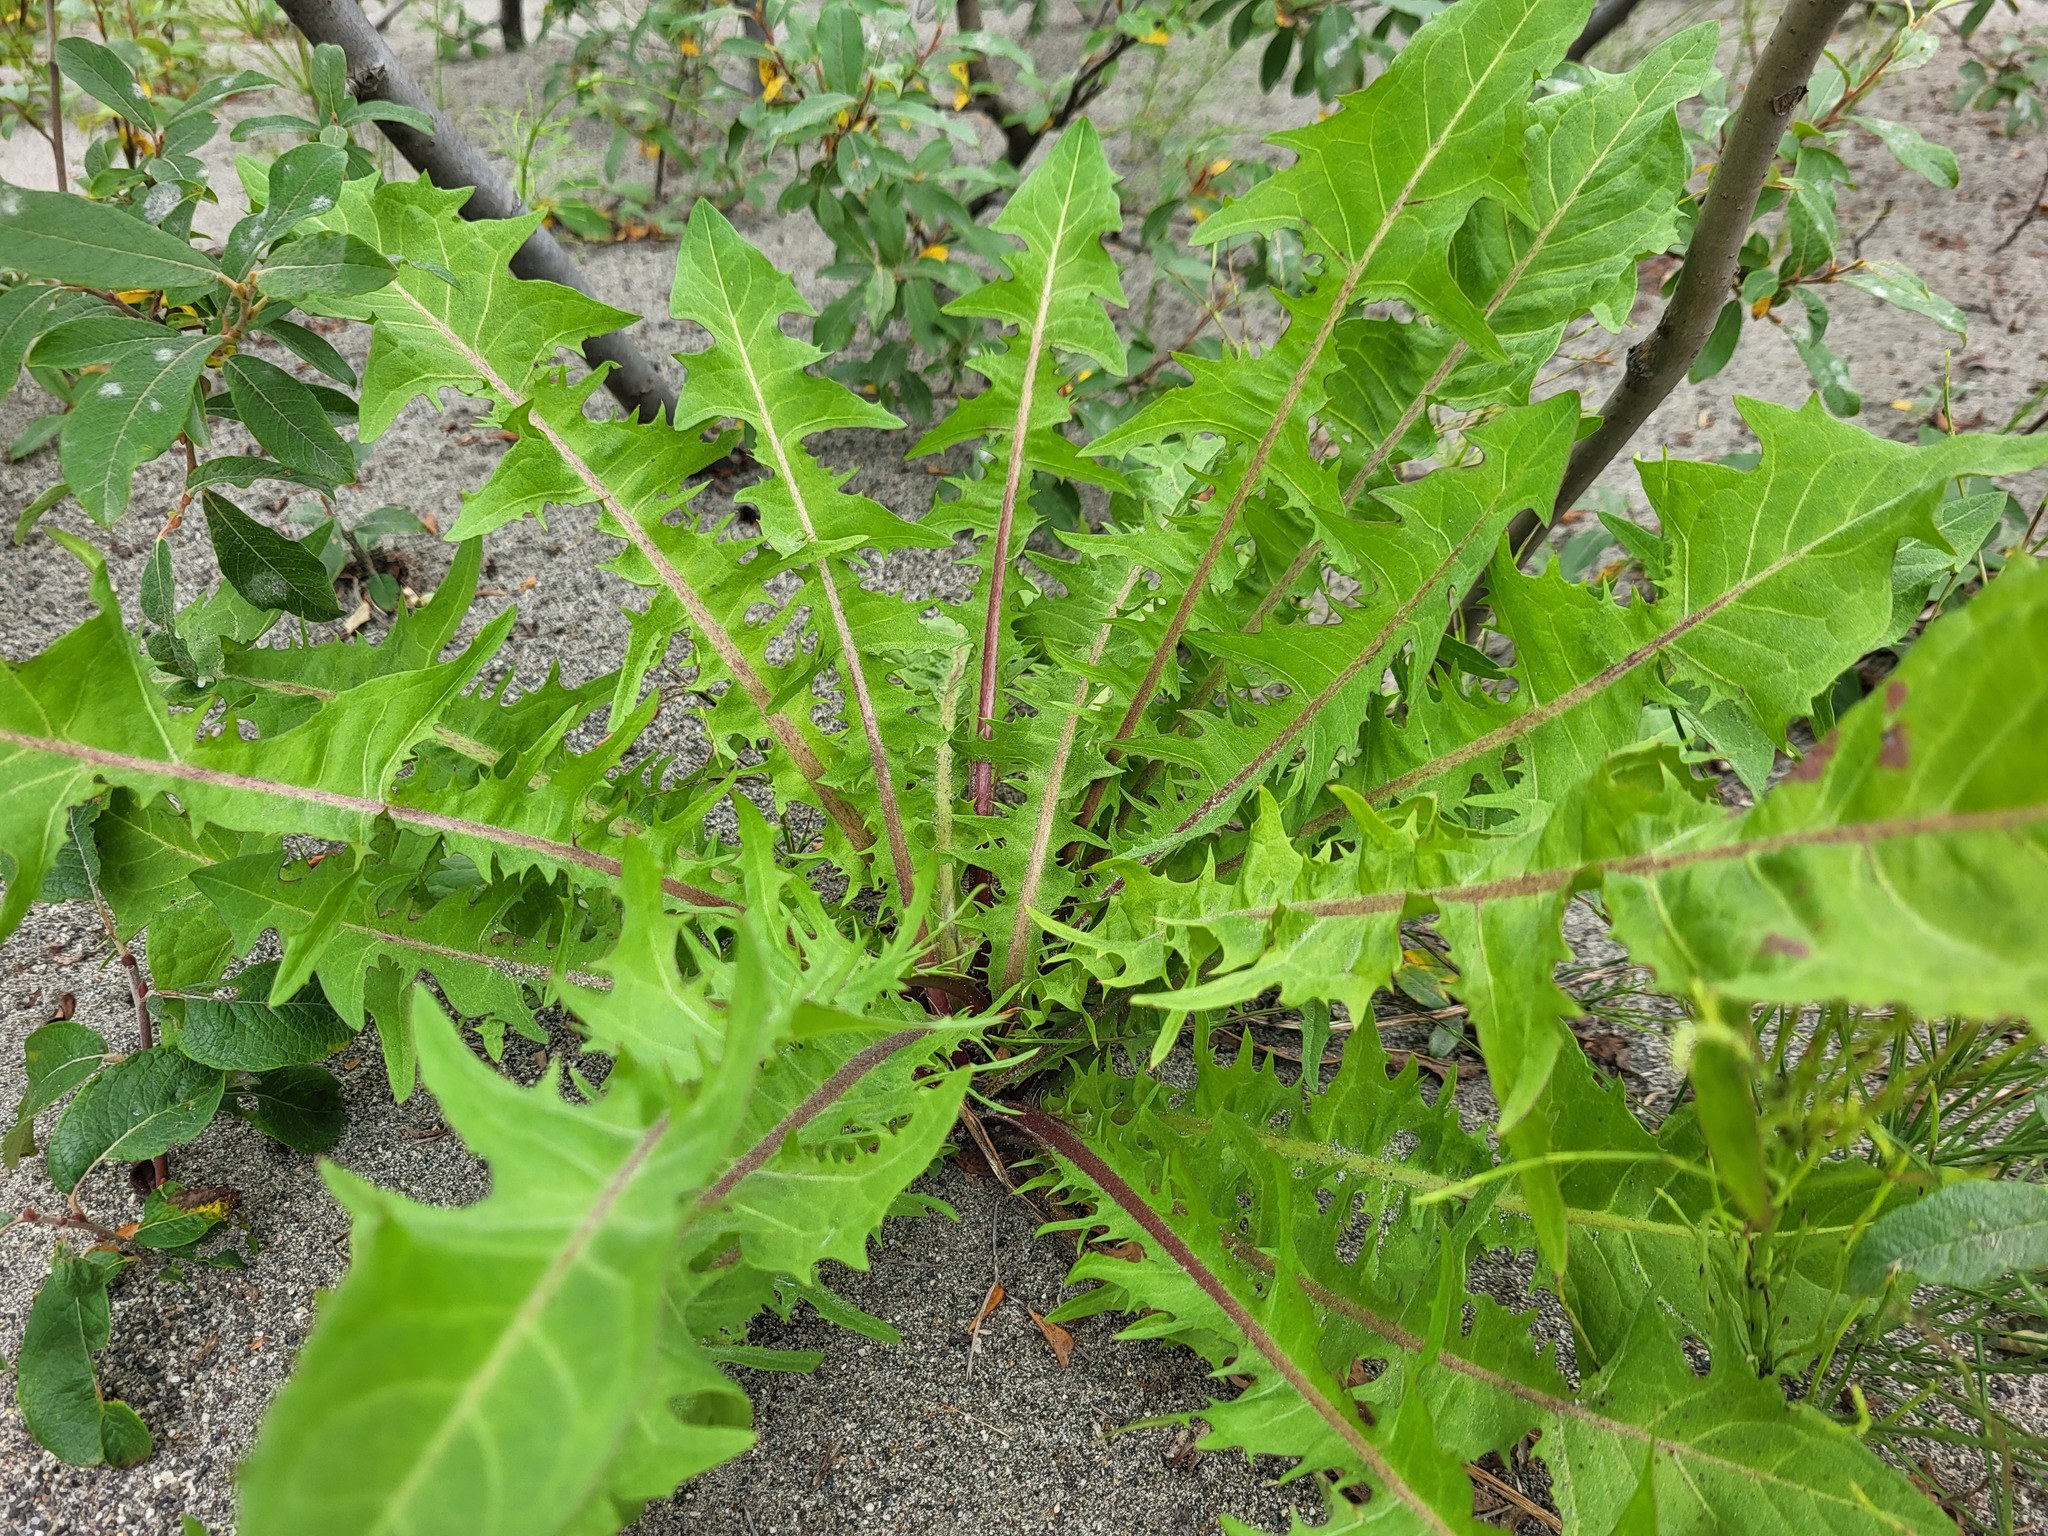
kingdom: Plantae
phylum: Tracheophyta
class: Magnoliopsida
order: Asterales
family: Asteraceae
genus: Taraxacum
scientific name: Taraxacum officinale
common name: Common dandelion
